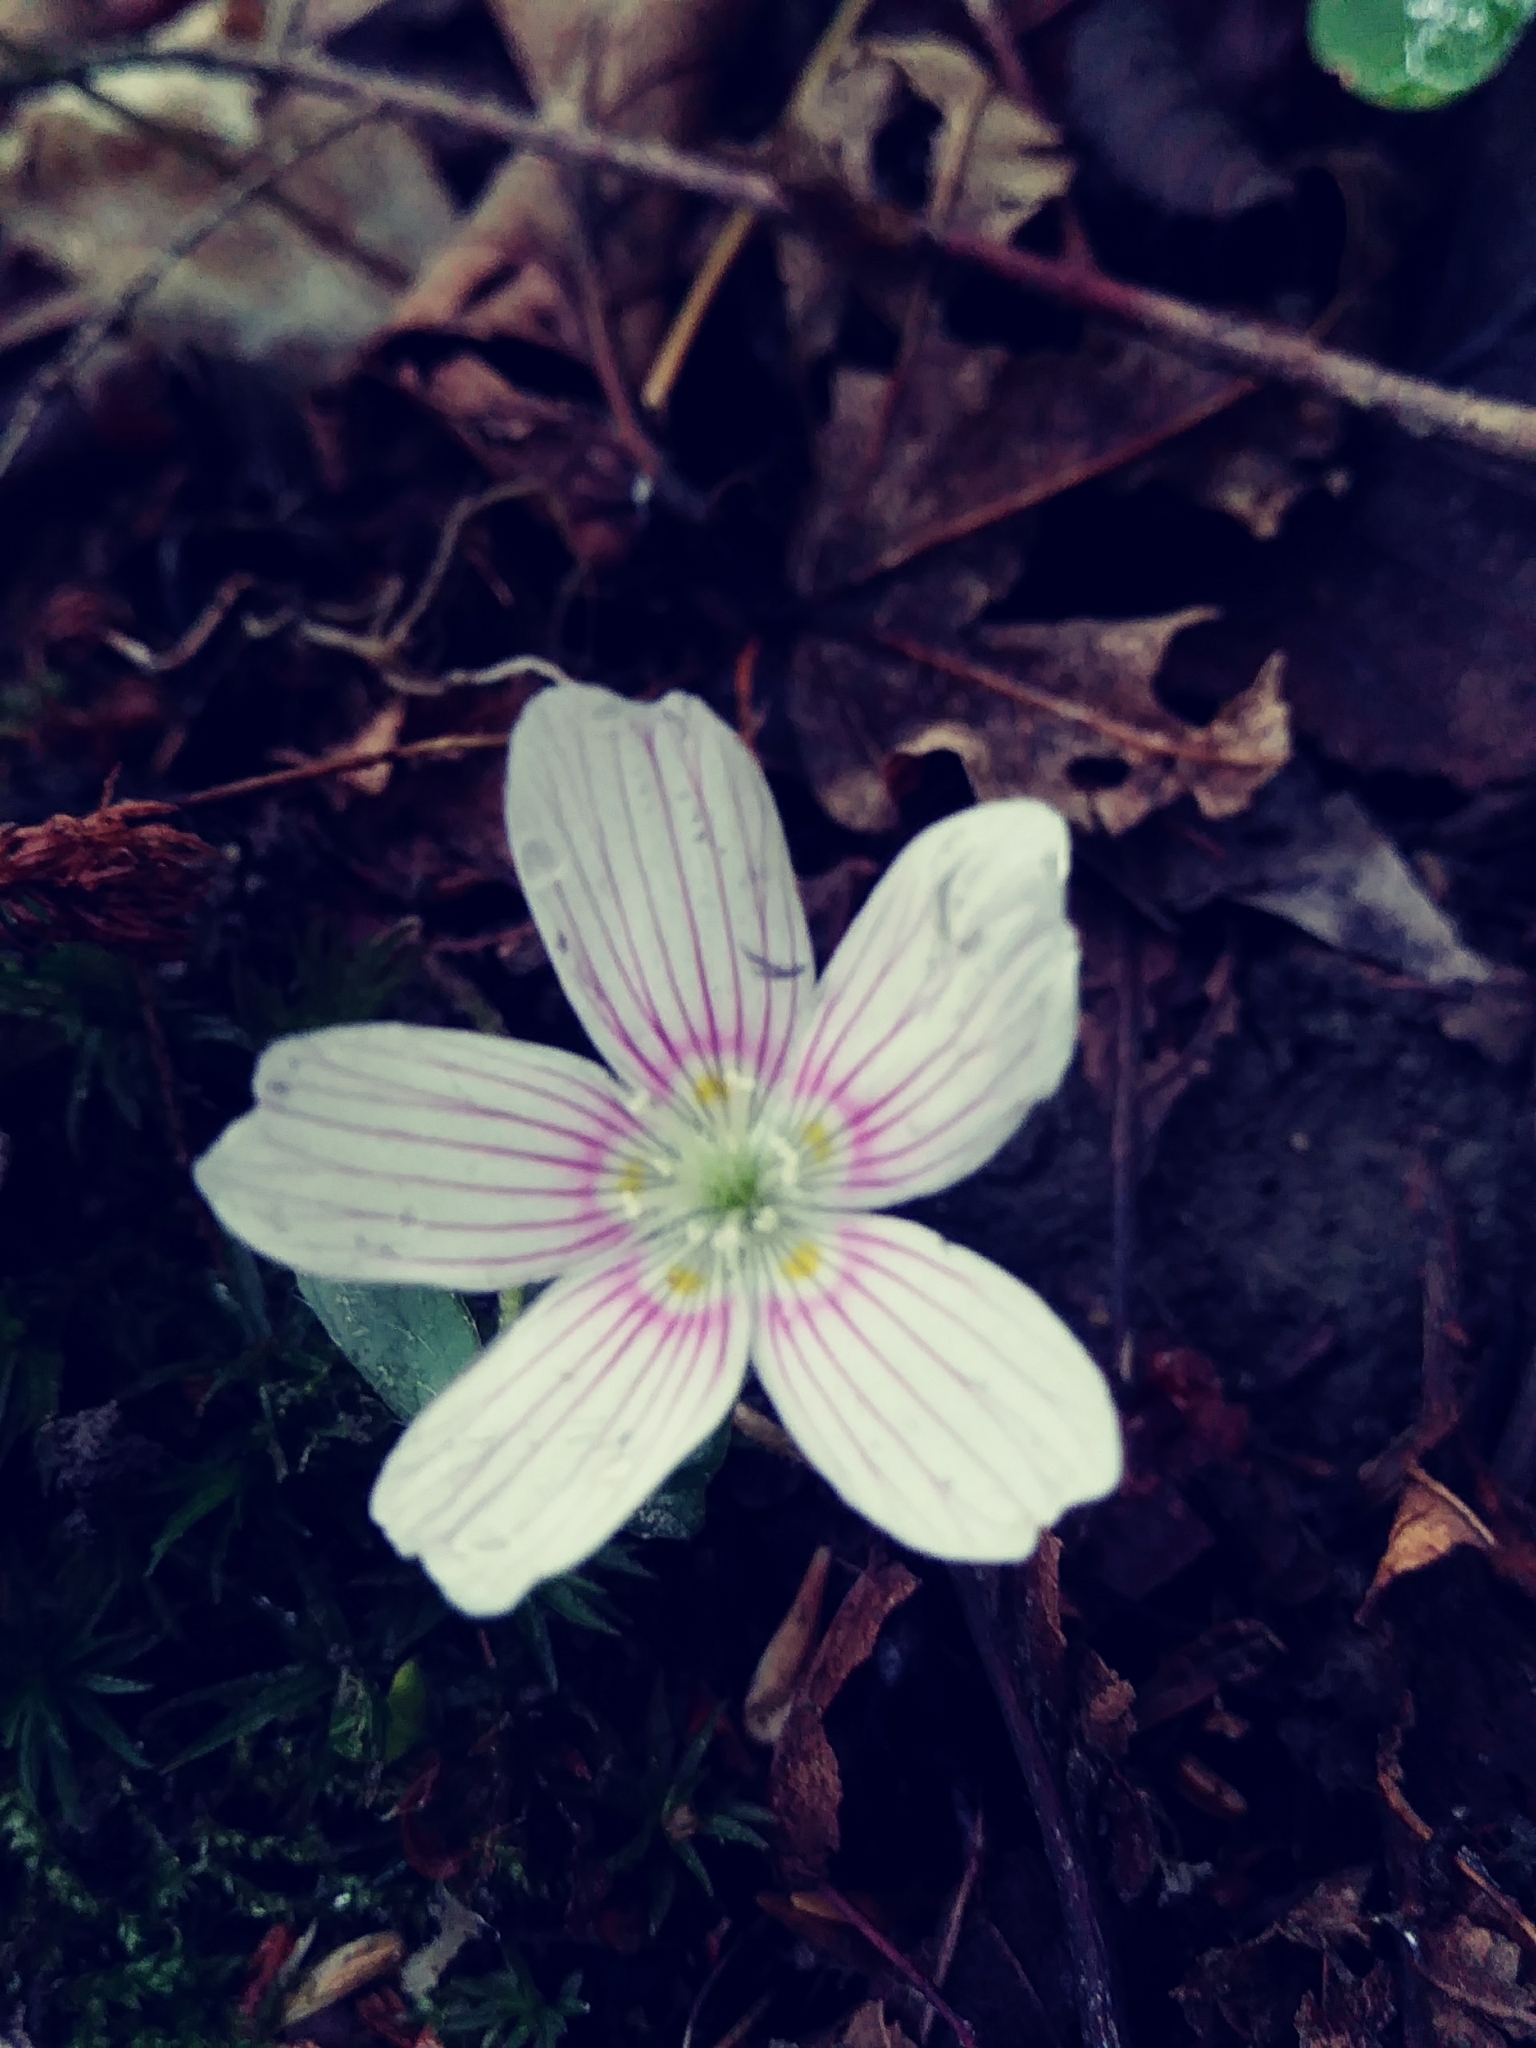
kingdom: Plantae
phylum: Tracheophyta
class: Magnoliopsida
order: Oxalidales
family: Oxalidaceae
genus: Oxalis
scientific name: Oxalis montana
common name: American wood-sorrel
